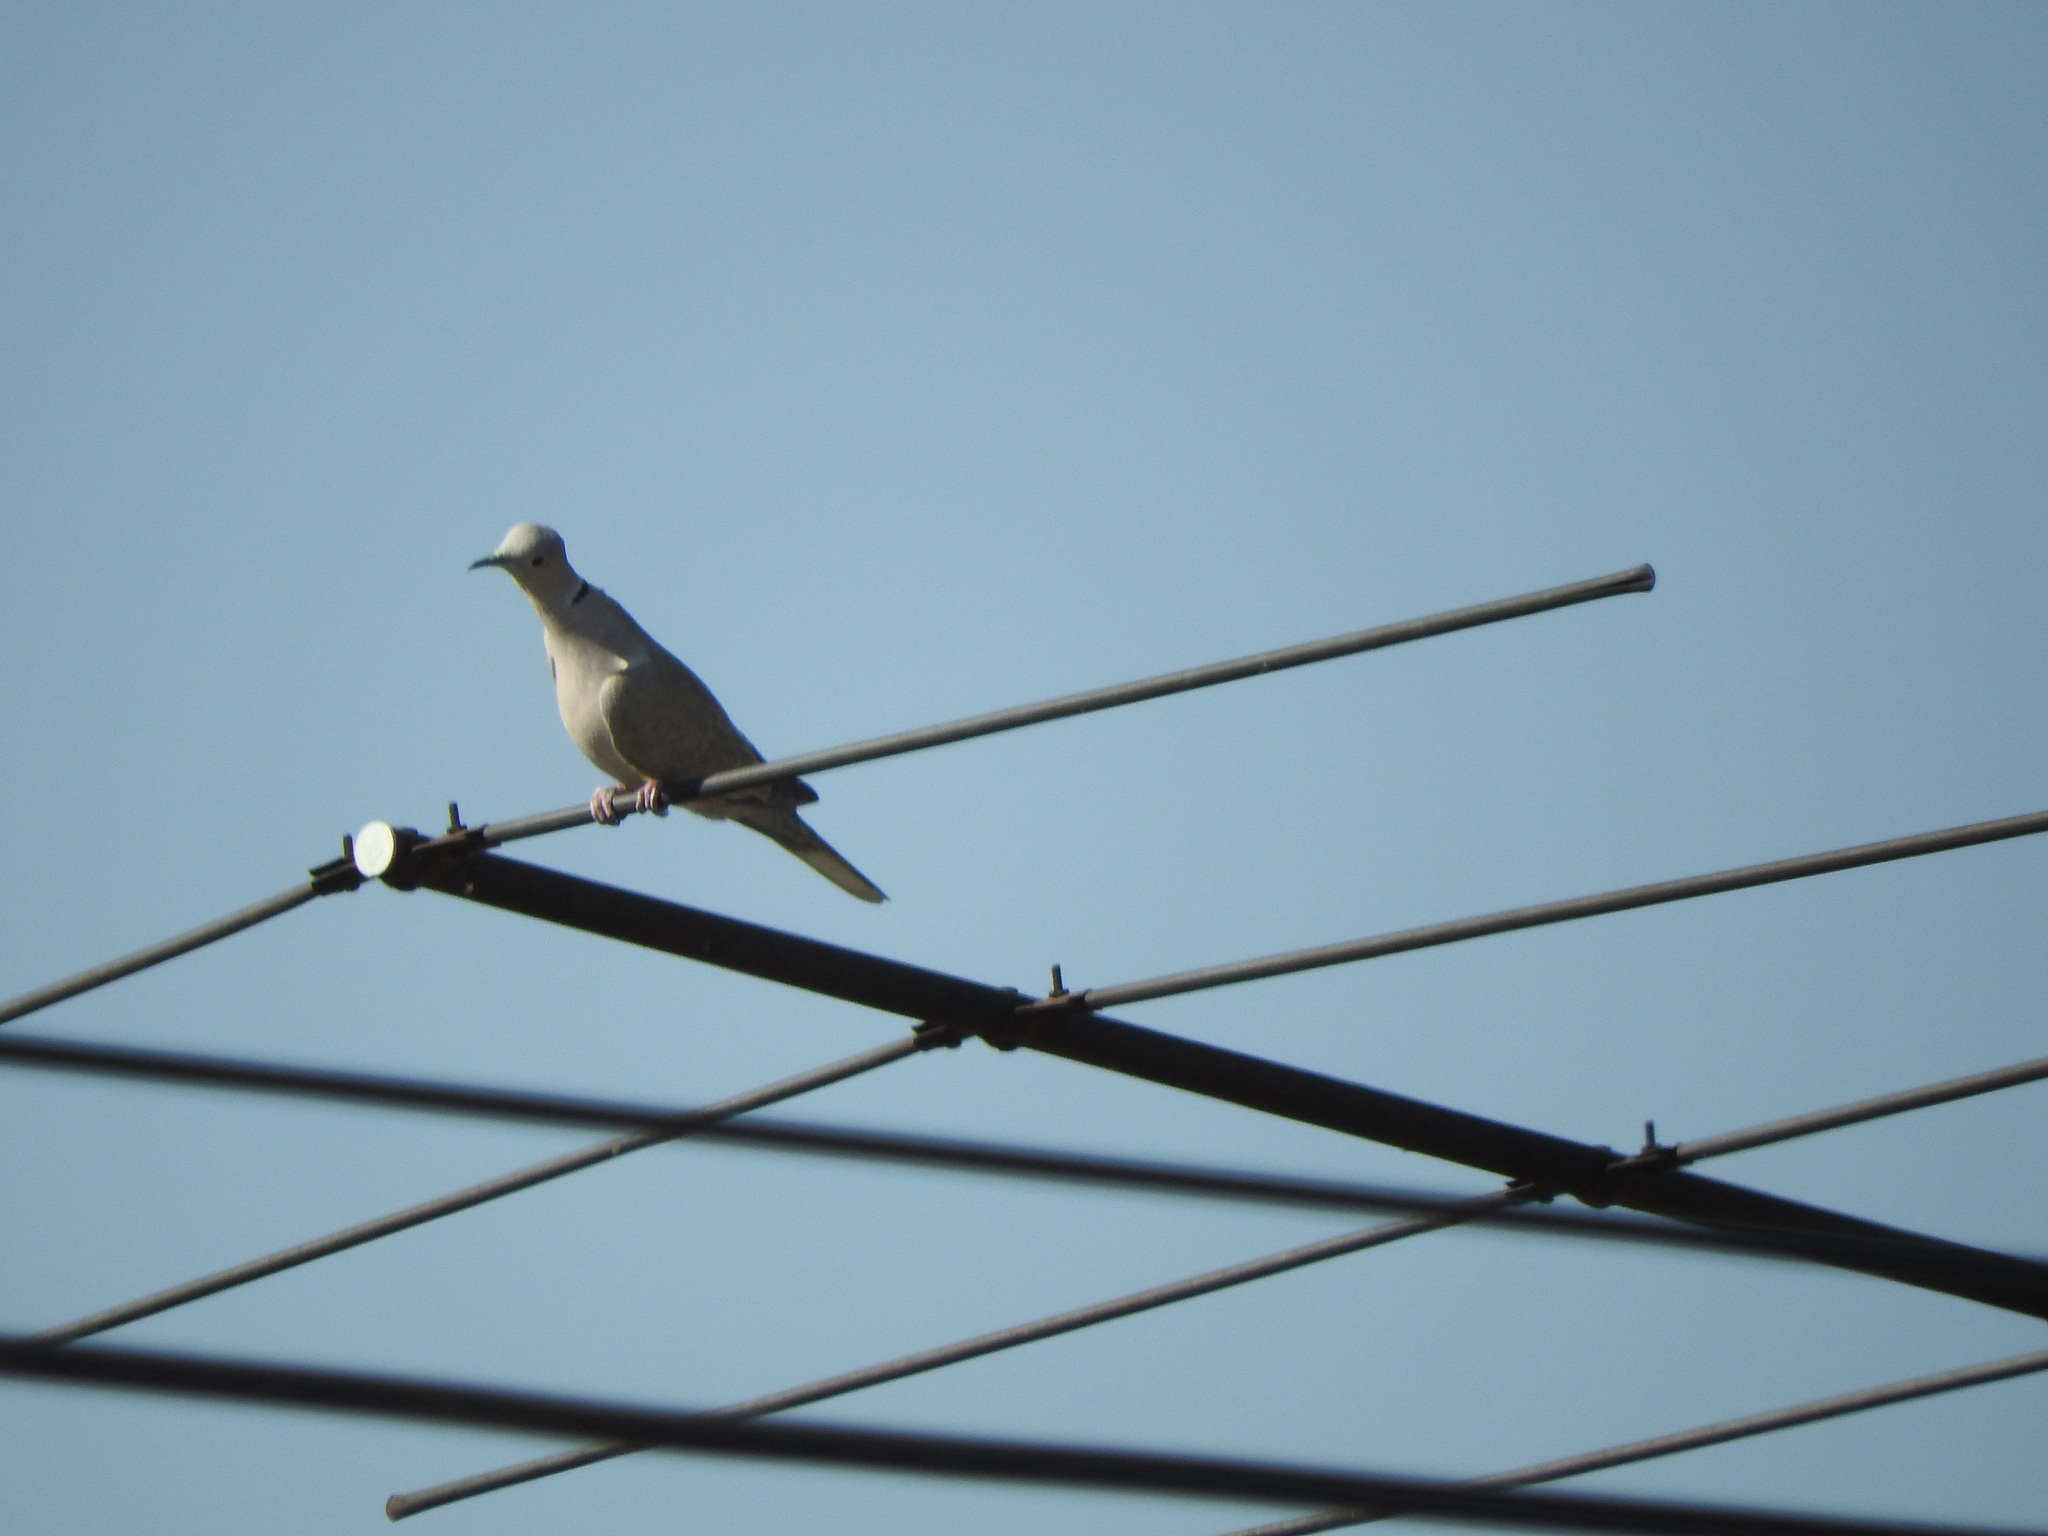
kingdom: Animalia
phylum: Chordata
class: Aves
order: Columbiformes
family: Columbidae
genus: Streptopelia
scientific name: Streptopelia decaocto
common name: Eurasian collared dove
